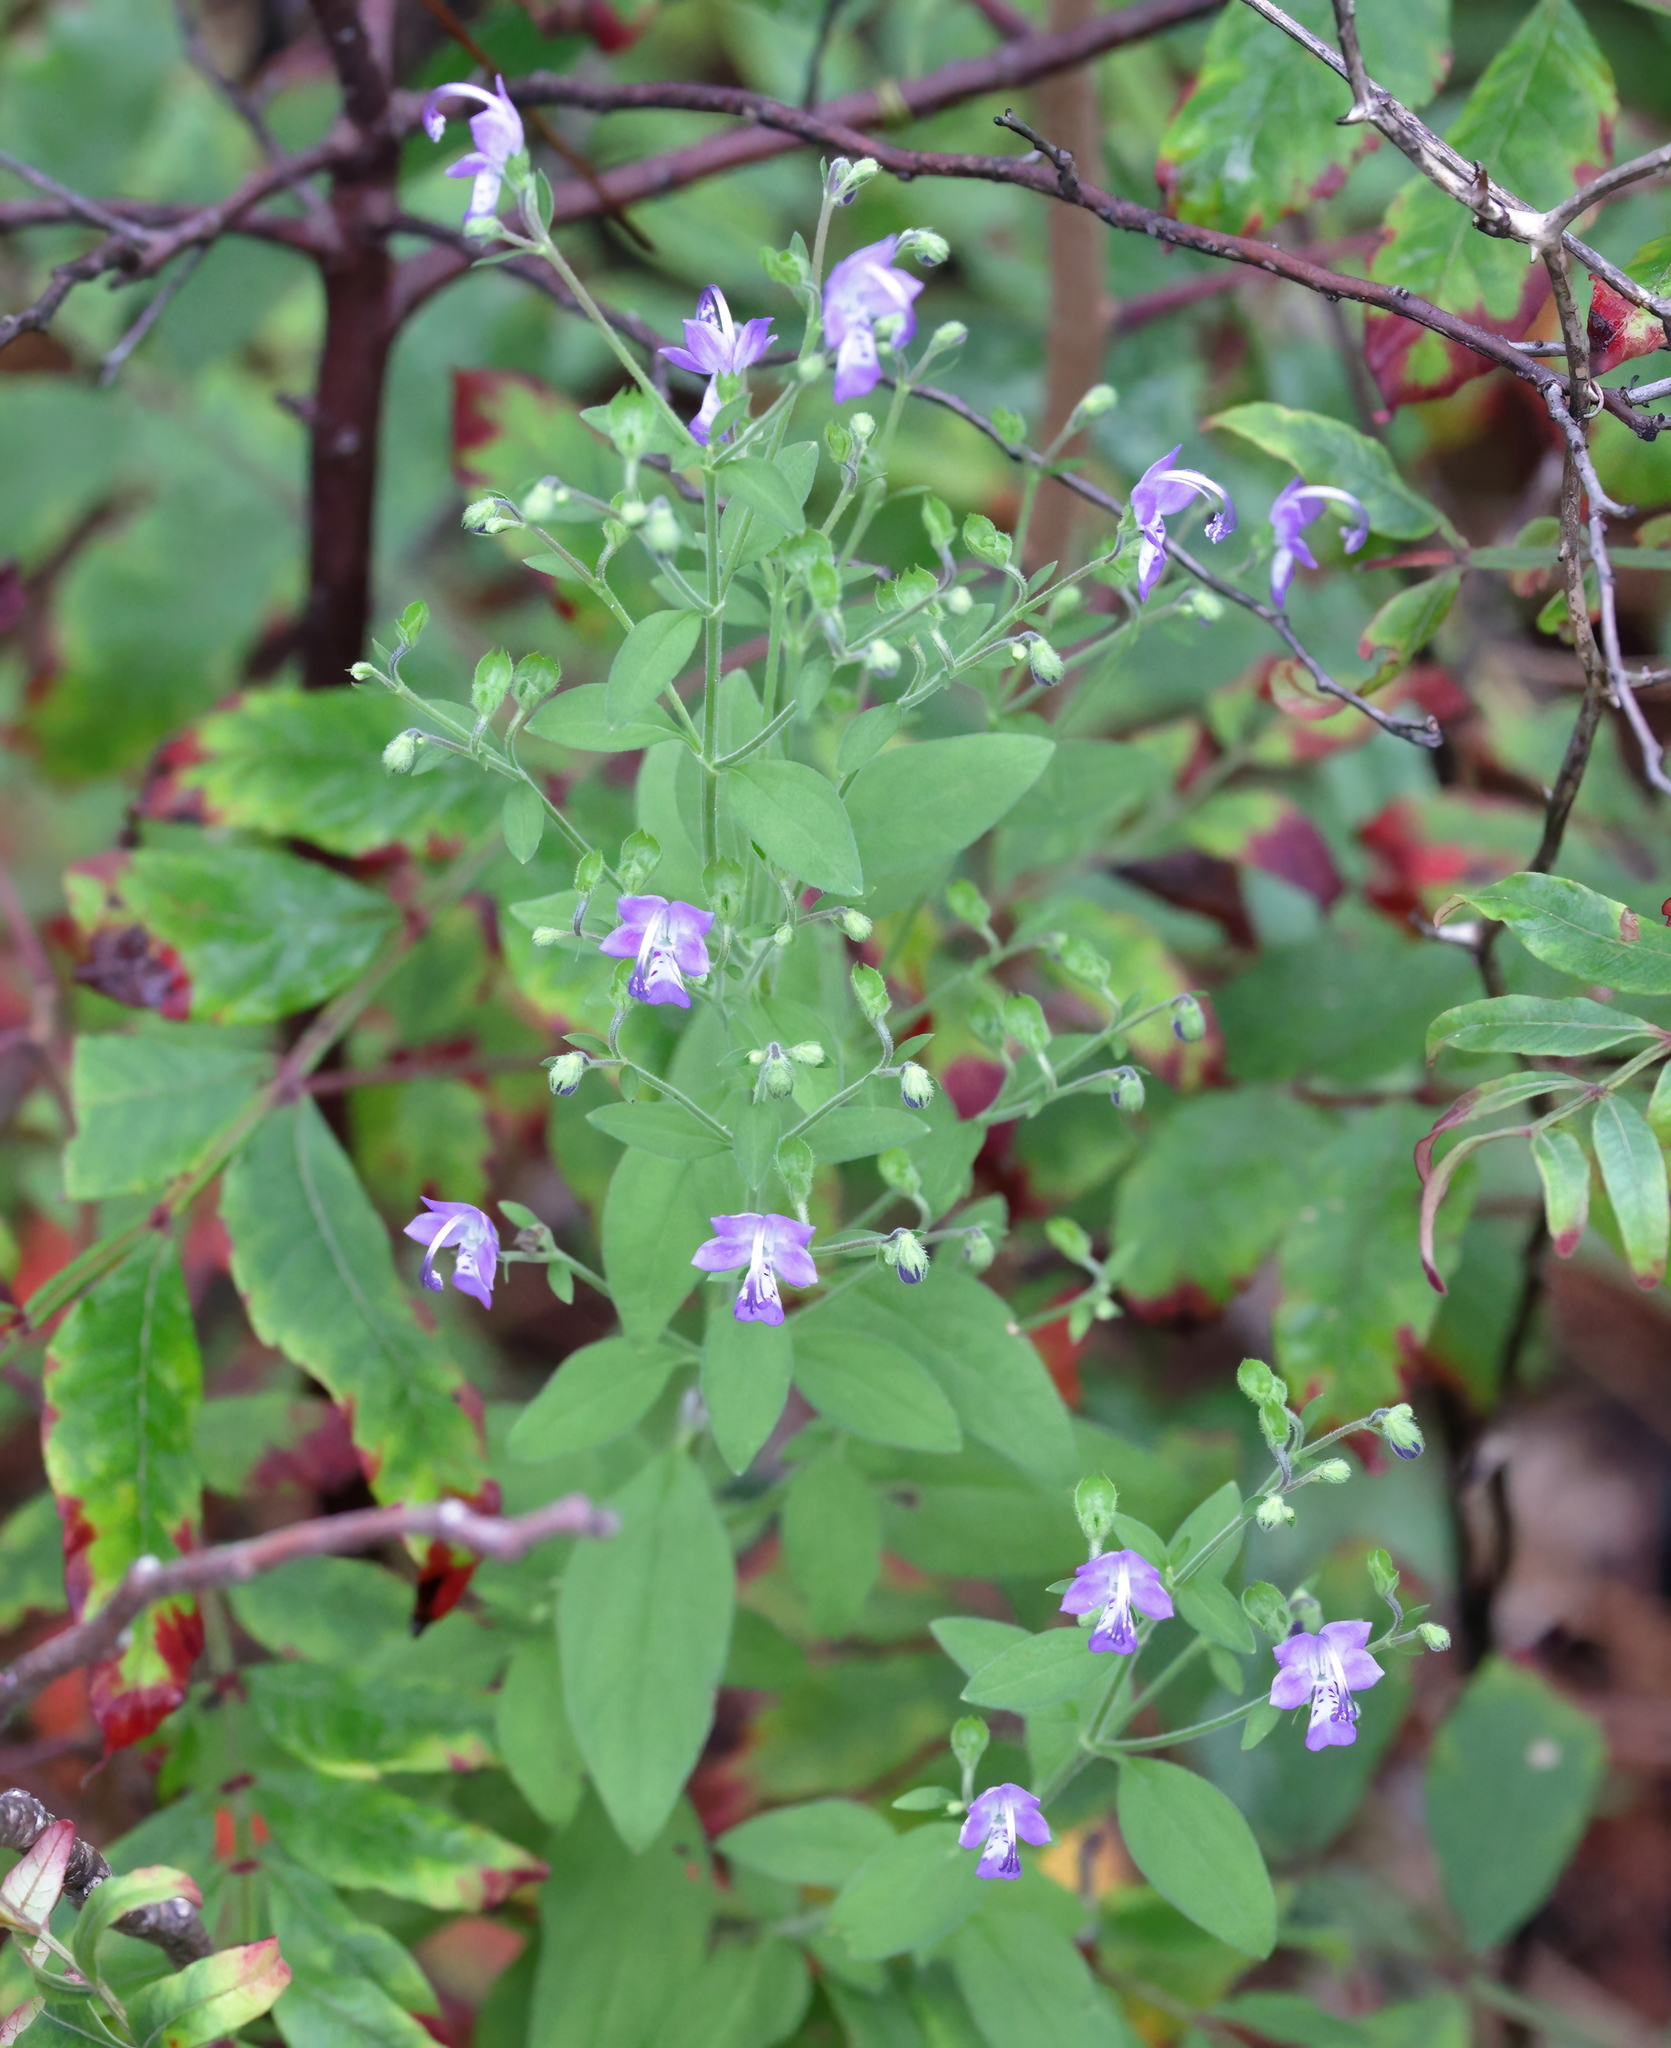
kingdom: Plantae
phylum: Tracheophyta
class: Magnoliopsida
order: Lamiales
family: Lamiaceae
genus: Trichostema
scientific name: Trichostema fruticosum
